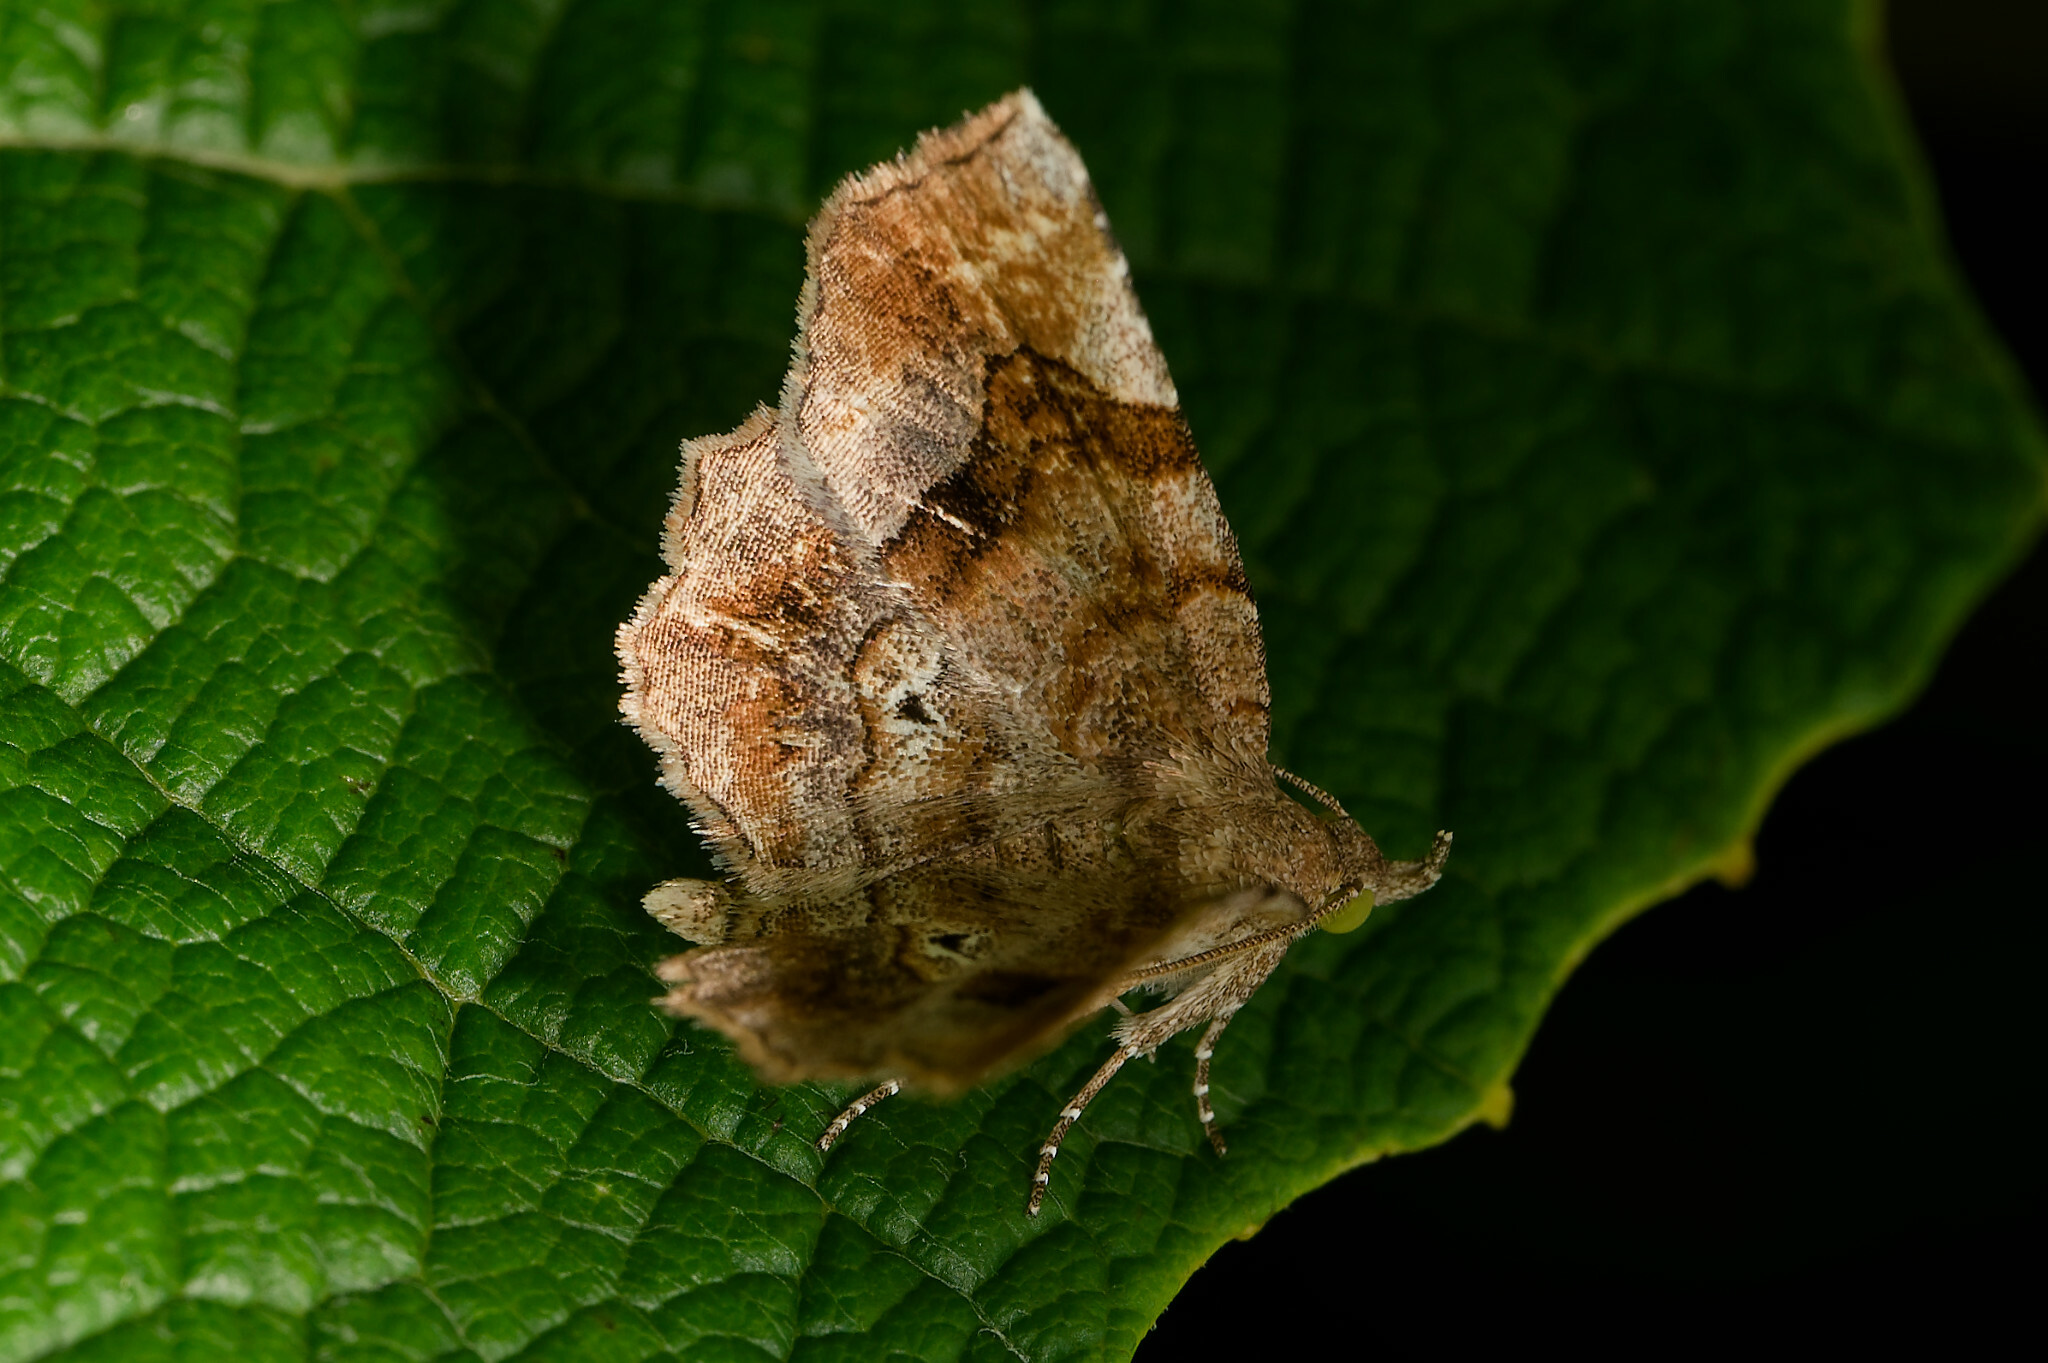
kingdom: Animalia
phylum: Arthropoda
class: Insecta
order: Lepidoptera
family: Erebidae
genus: Pangrapta
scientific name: Pangrapta decoralis
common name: Decorated owlet
